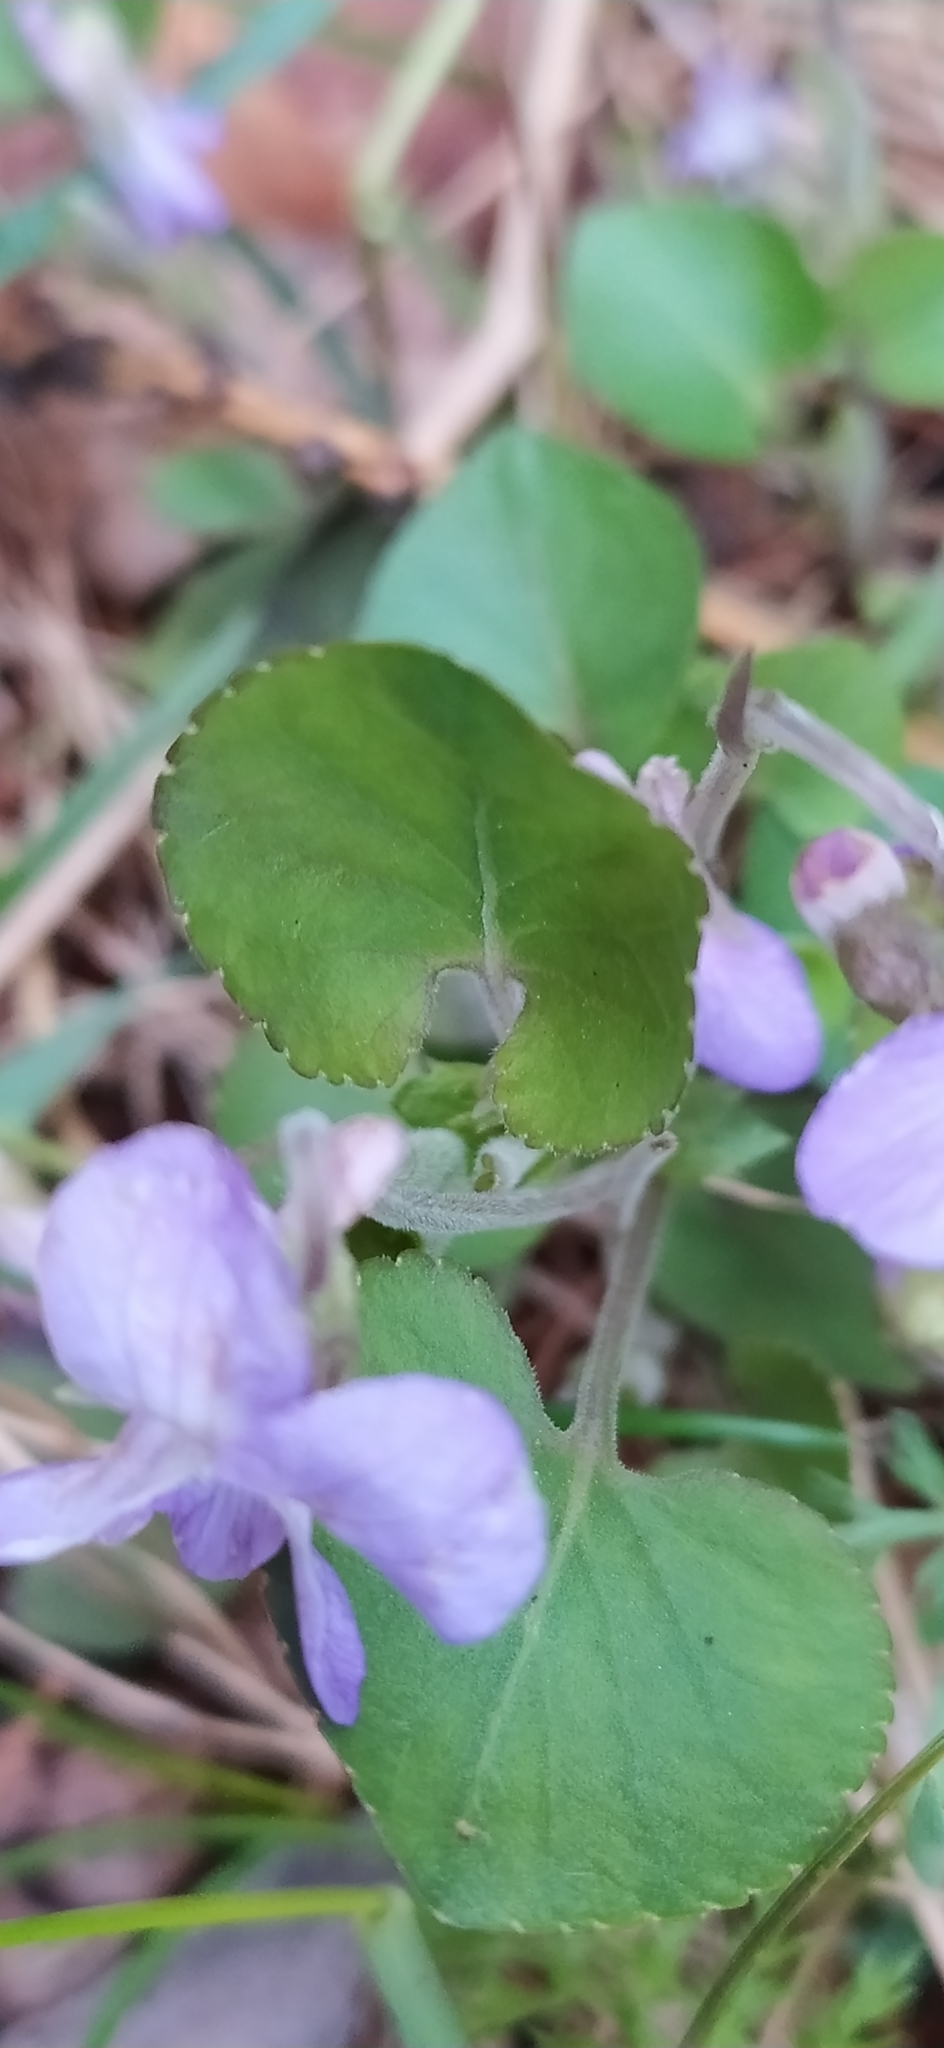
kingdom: Plantae
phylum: Tracheophyta
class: Magnoliopsida
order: Malpighiales
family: Violaceae
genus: Viola
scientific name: Viola rupestris
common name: Teesdale violet
